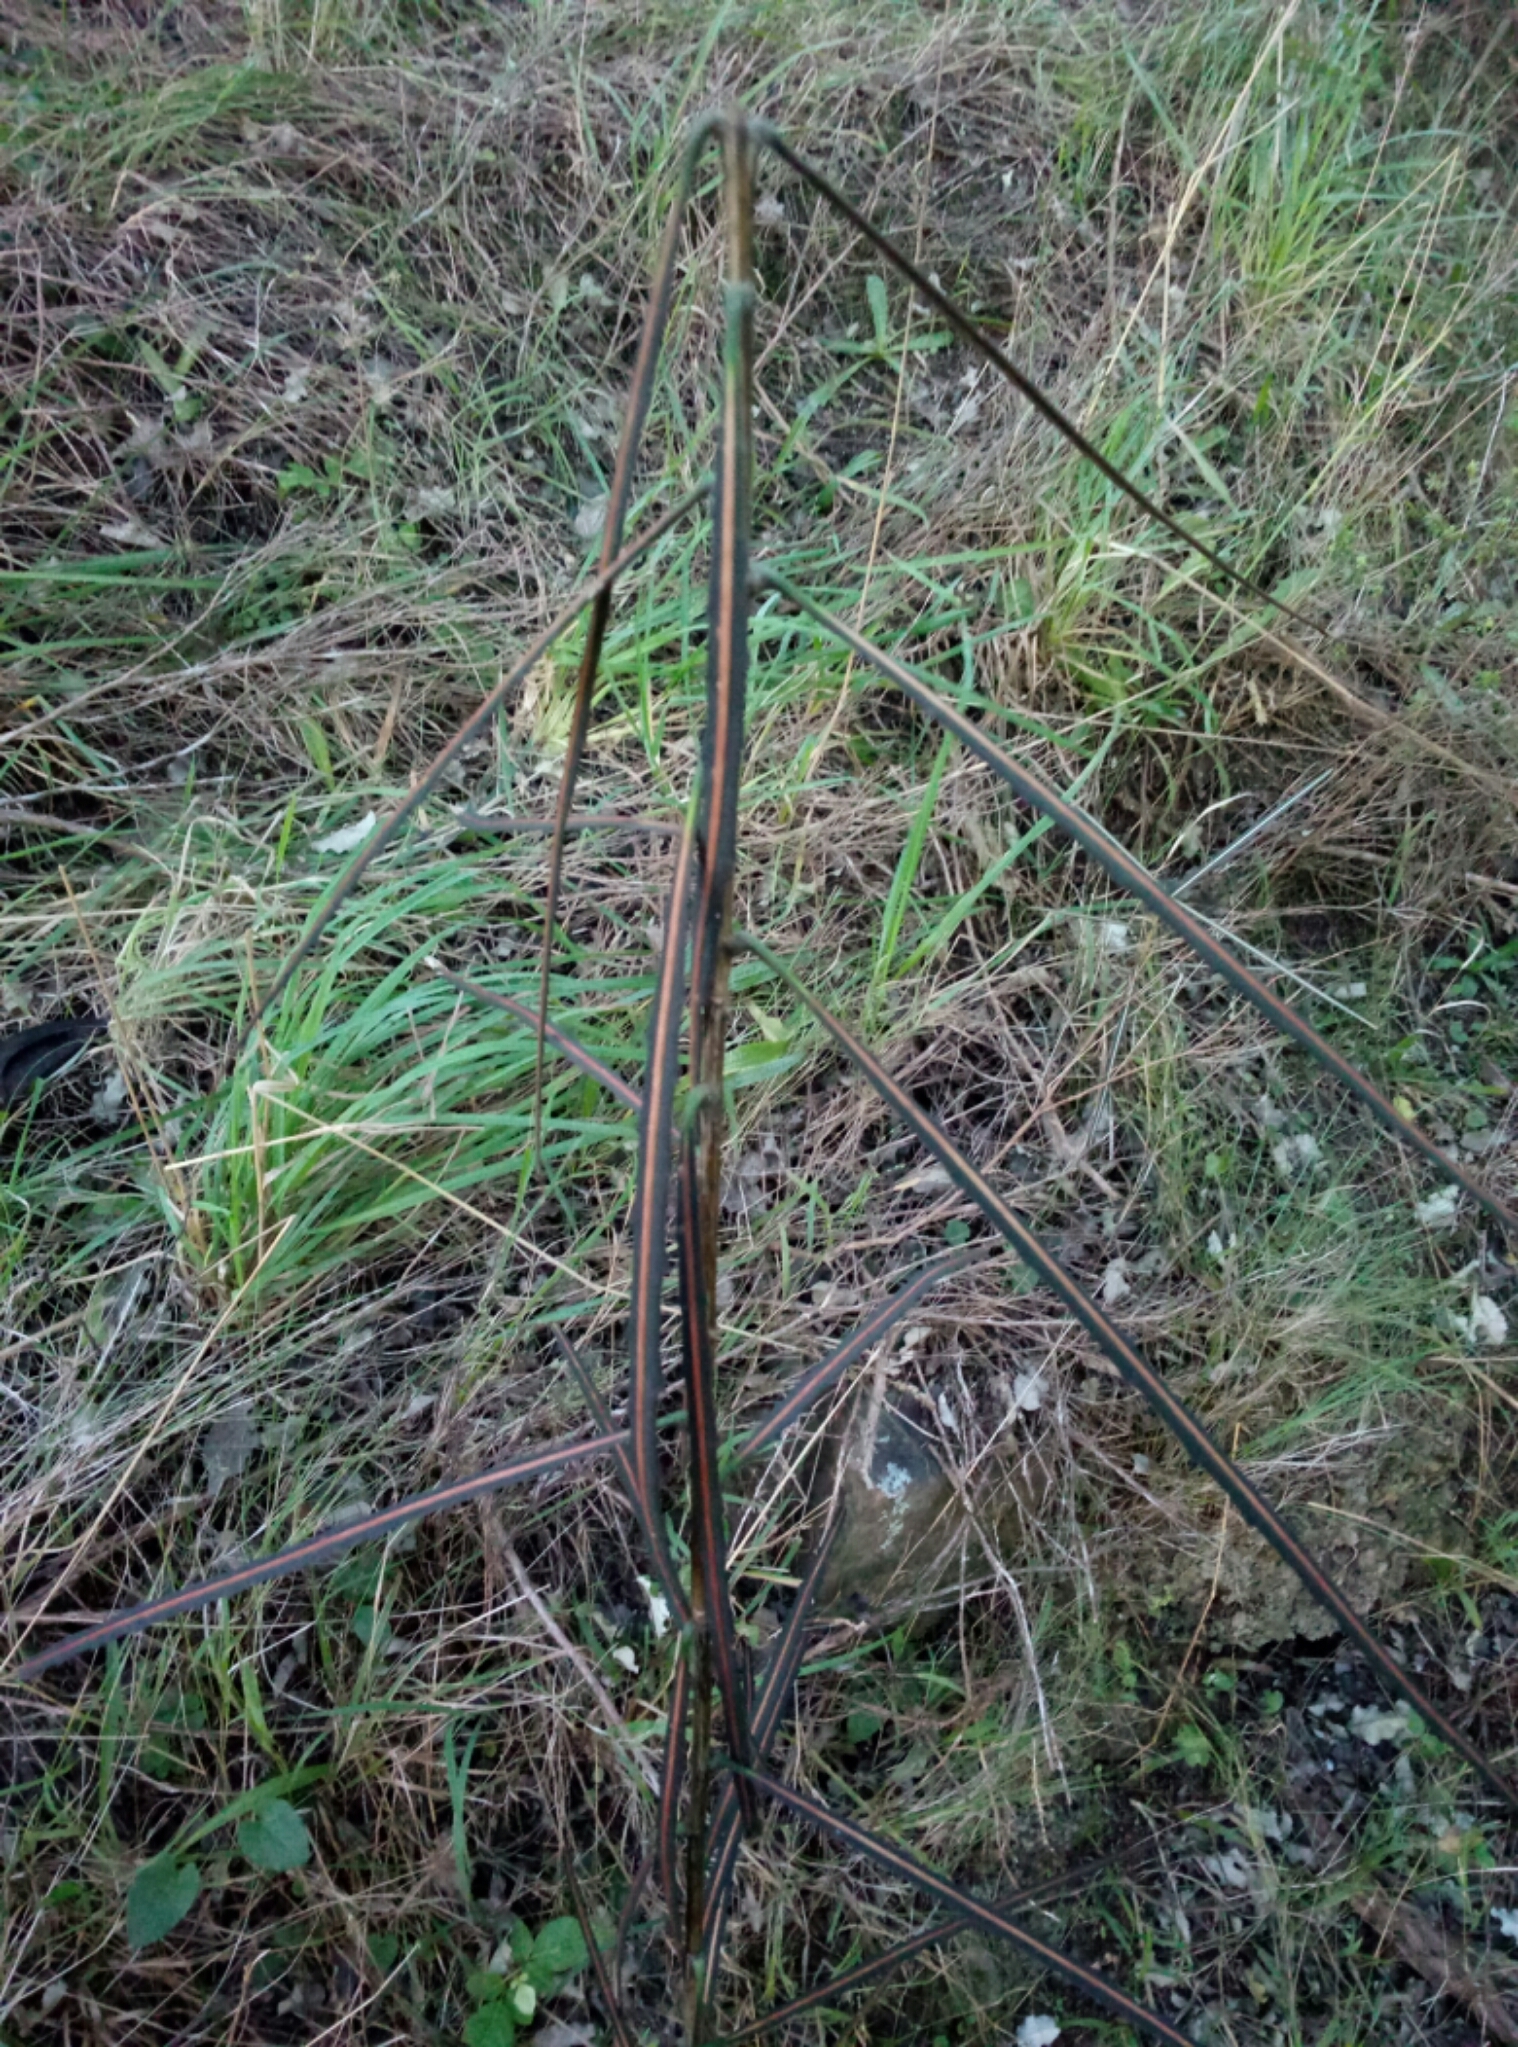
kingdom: Plantae
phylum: Tracheophyta
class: Magnoliopsida
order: Apiales
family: Araliaceae
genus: Pseudopanax
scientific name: Pseudopanax crassifolius
